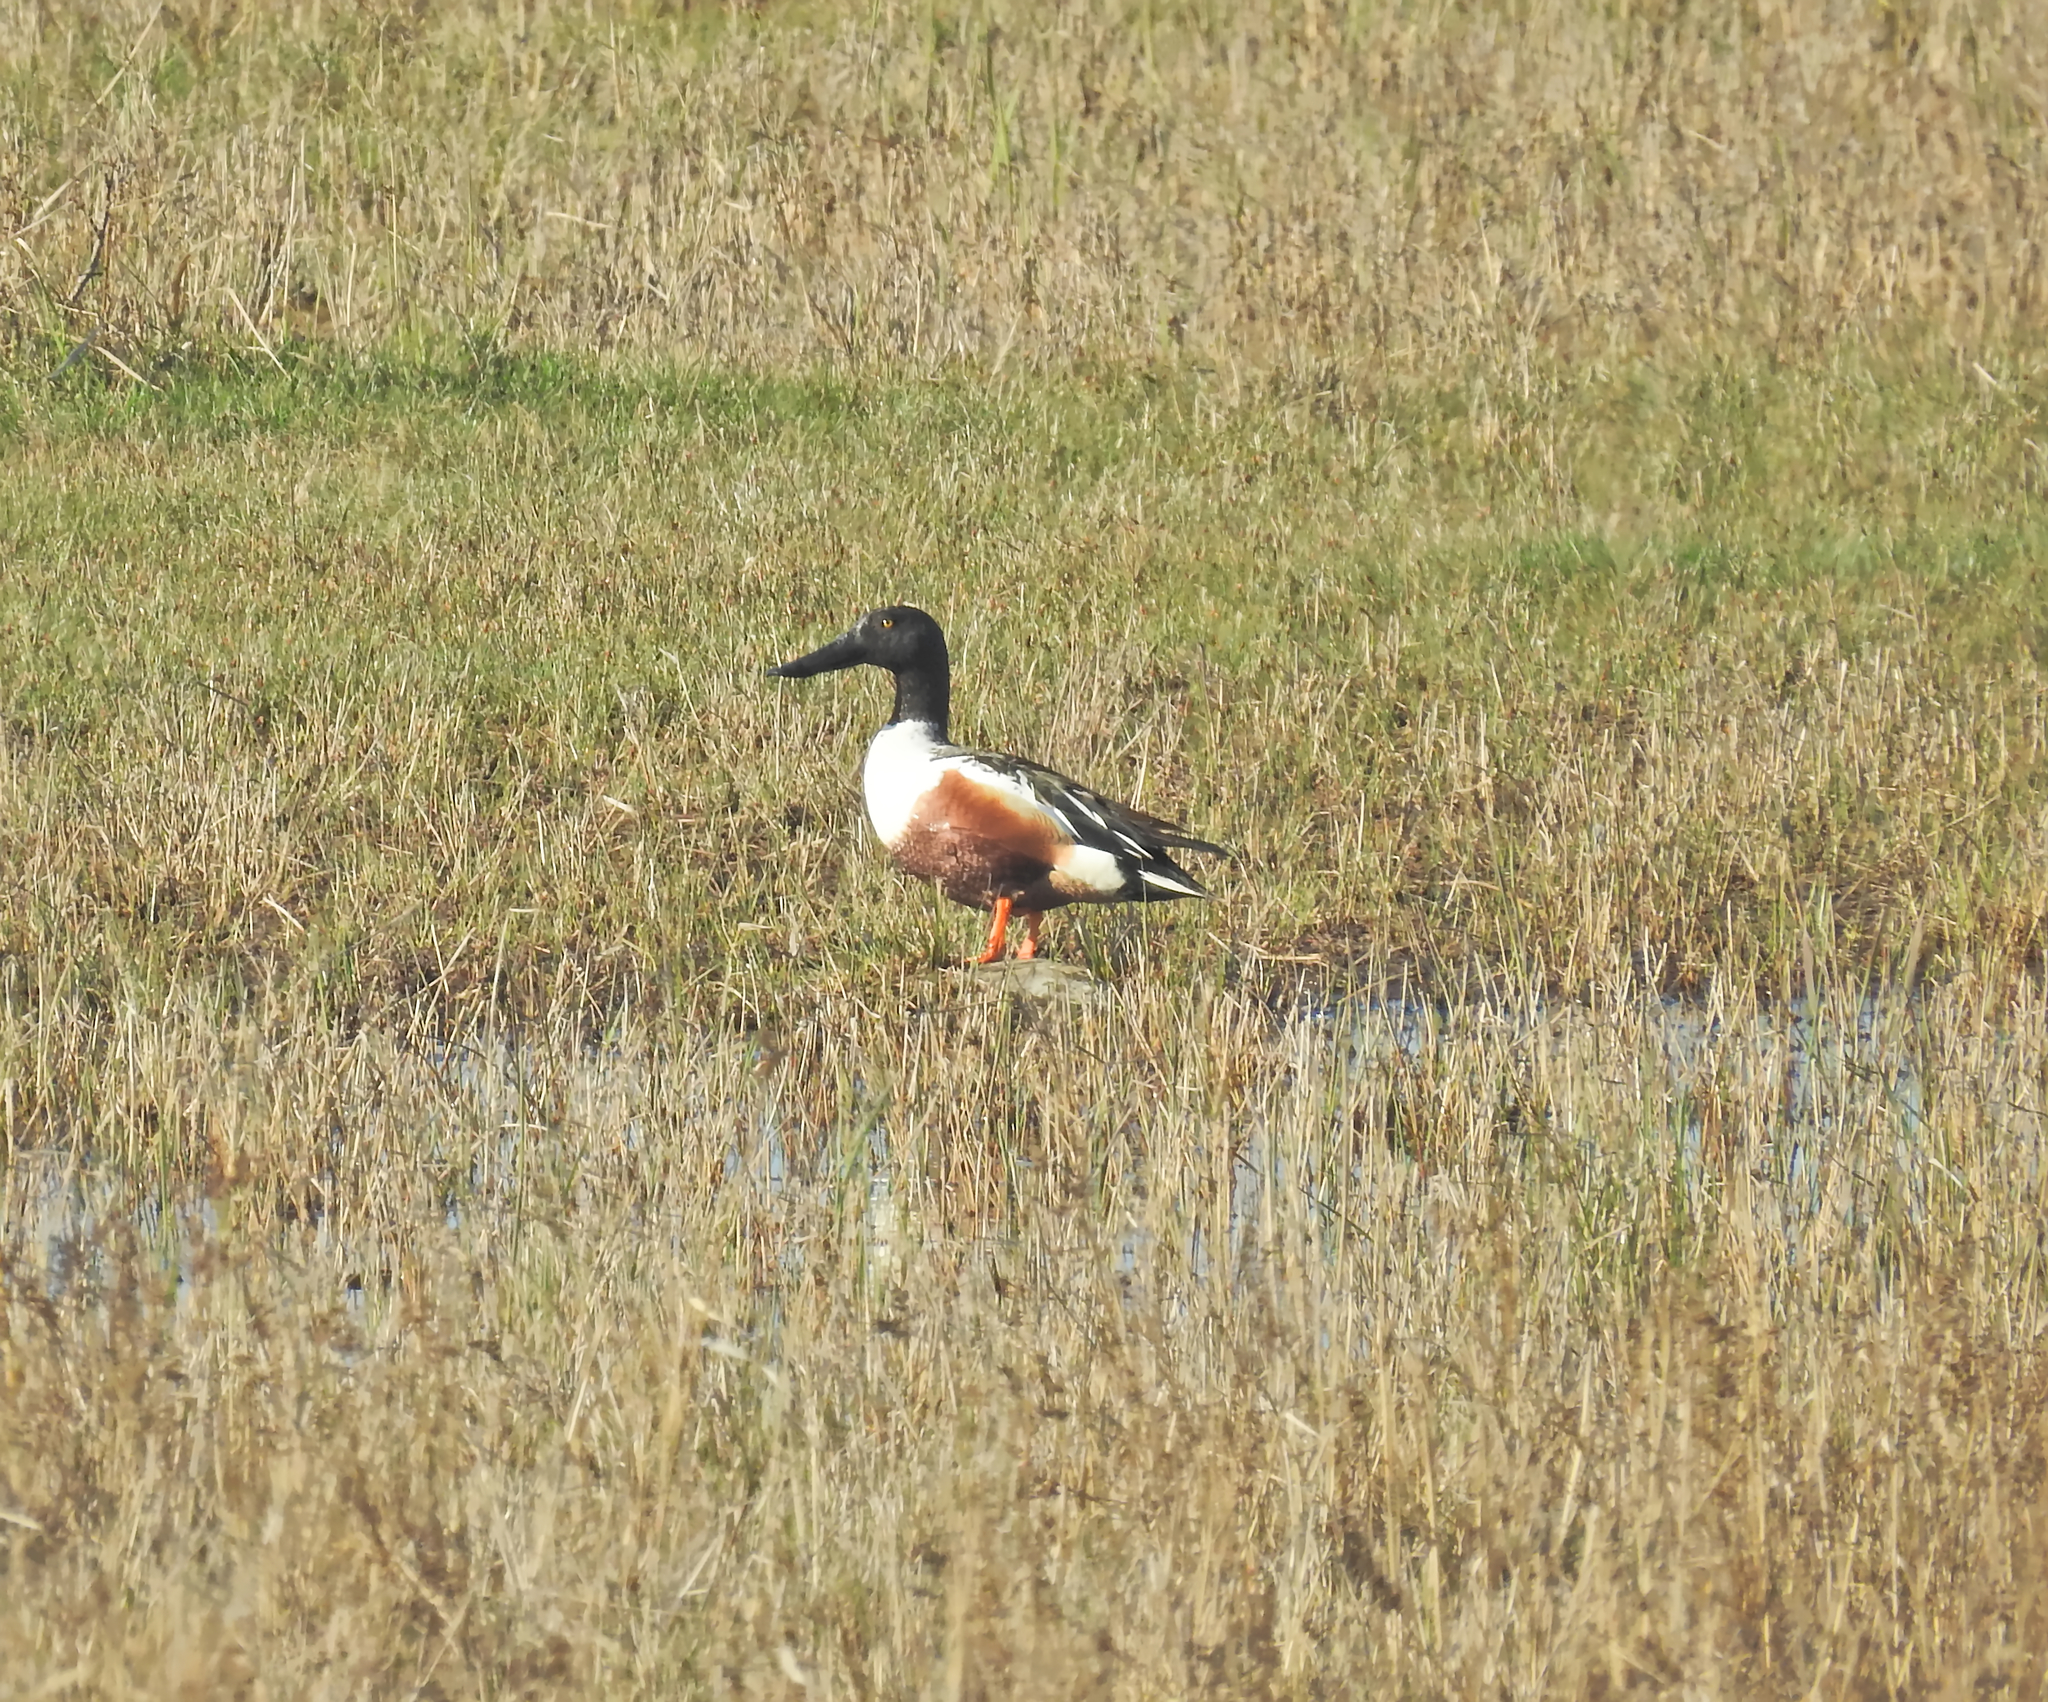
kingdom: Animalia
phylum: Chordata
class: Aves
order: Anseriformes
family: Anatidae
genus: Spatula
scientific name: Spatula clypeata
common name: Northern shoveler
